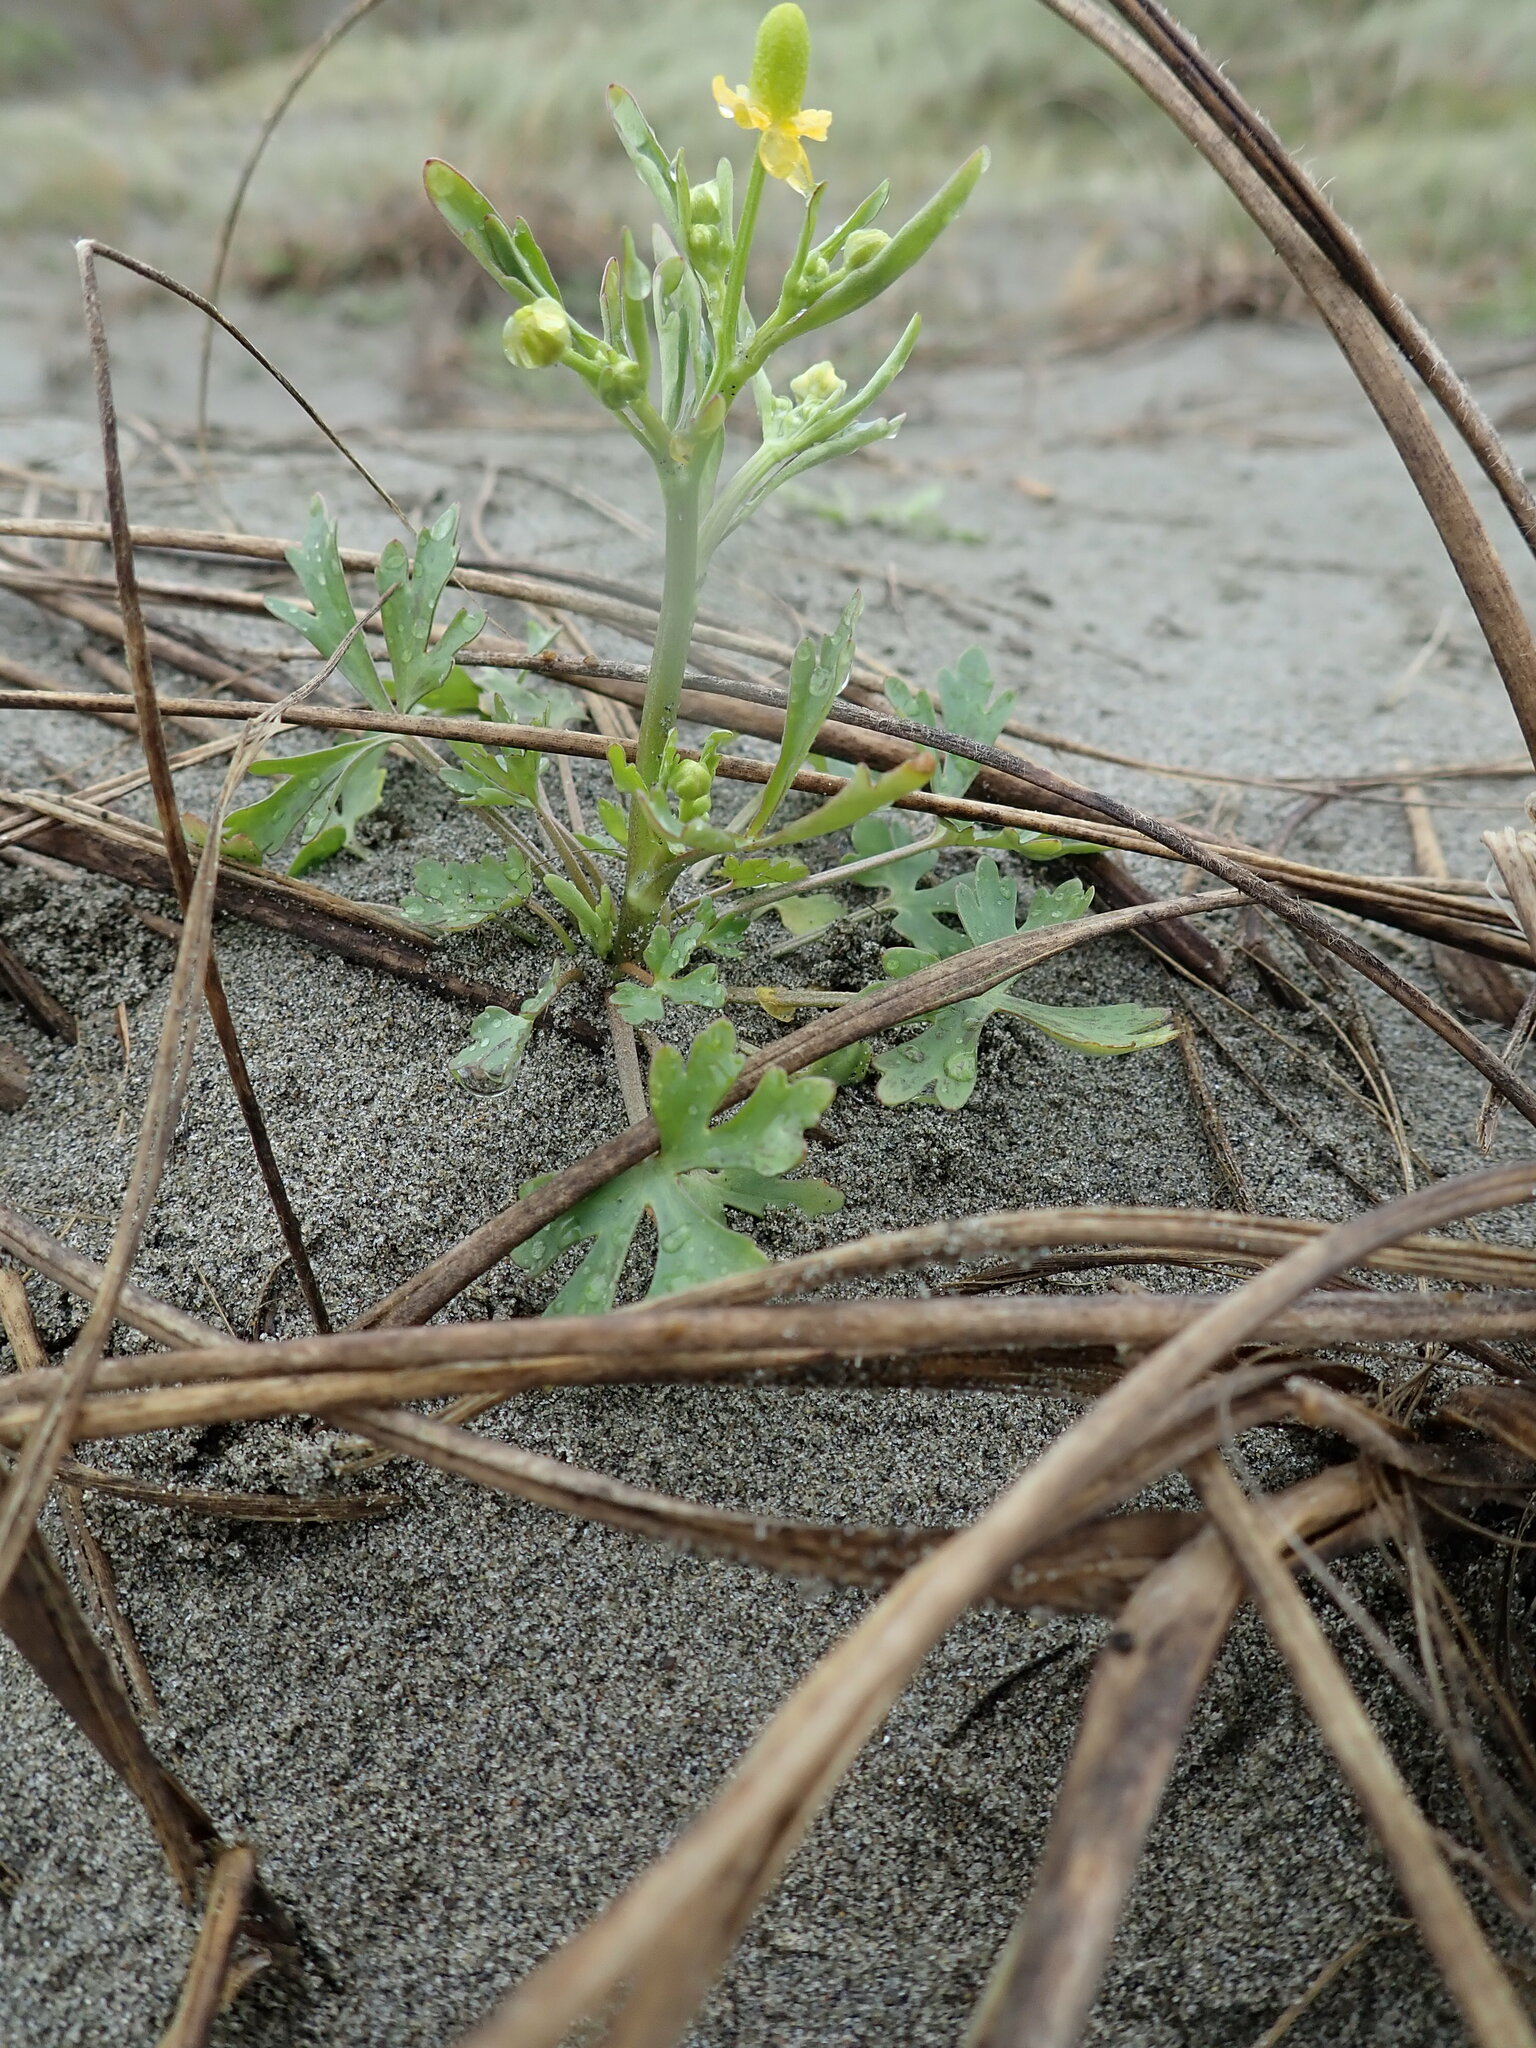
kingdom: Plantae
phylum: Tracheophyta
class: Magnoliopsida
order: Ranunculales
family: Ranunculaceae
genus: Ranunculus
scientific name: Ranunculus sceleratus
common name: Celery-leaved buttercup
